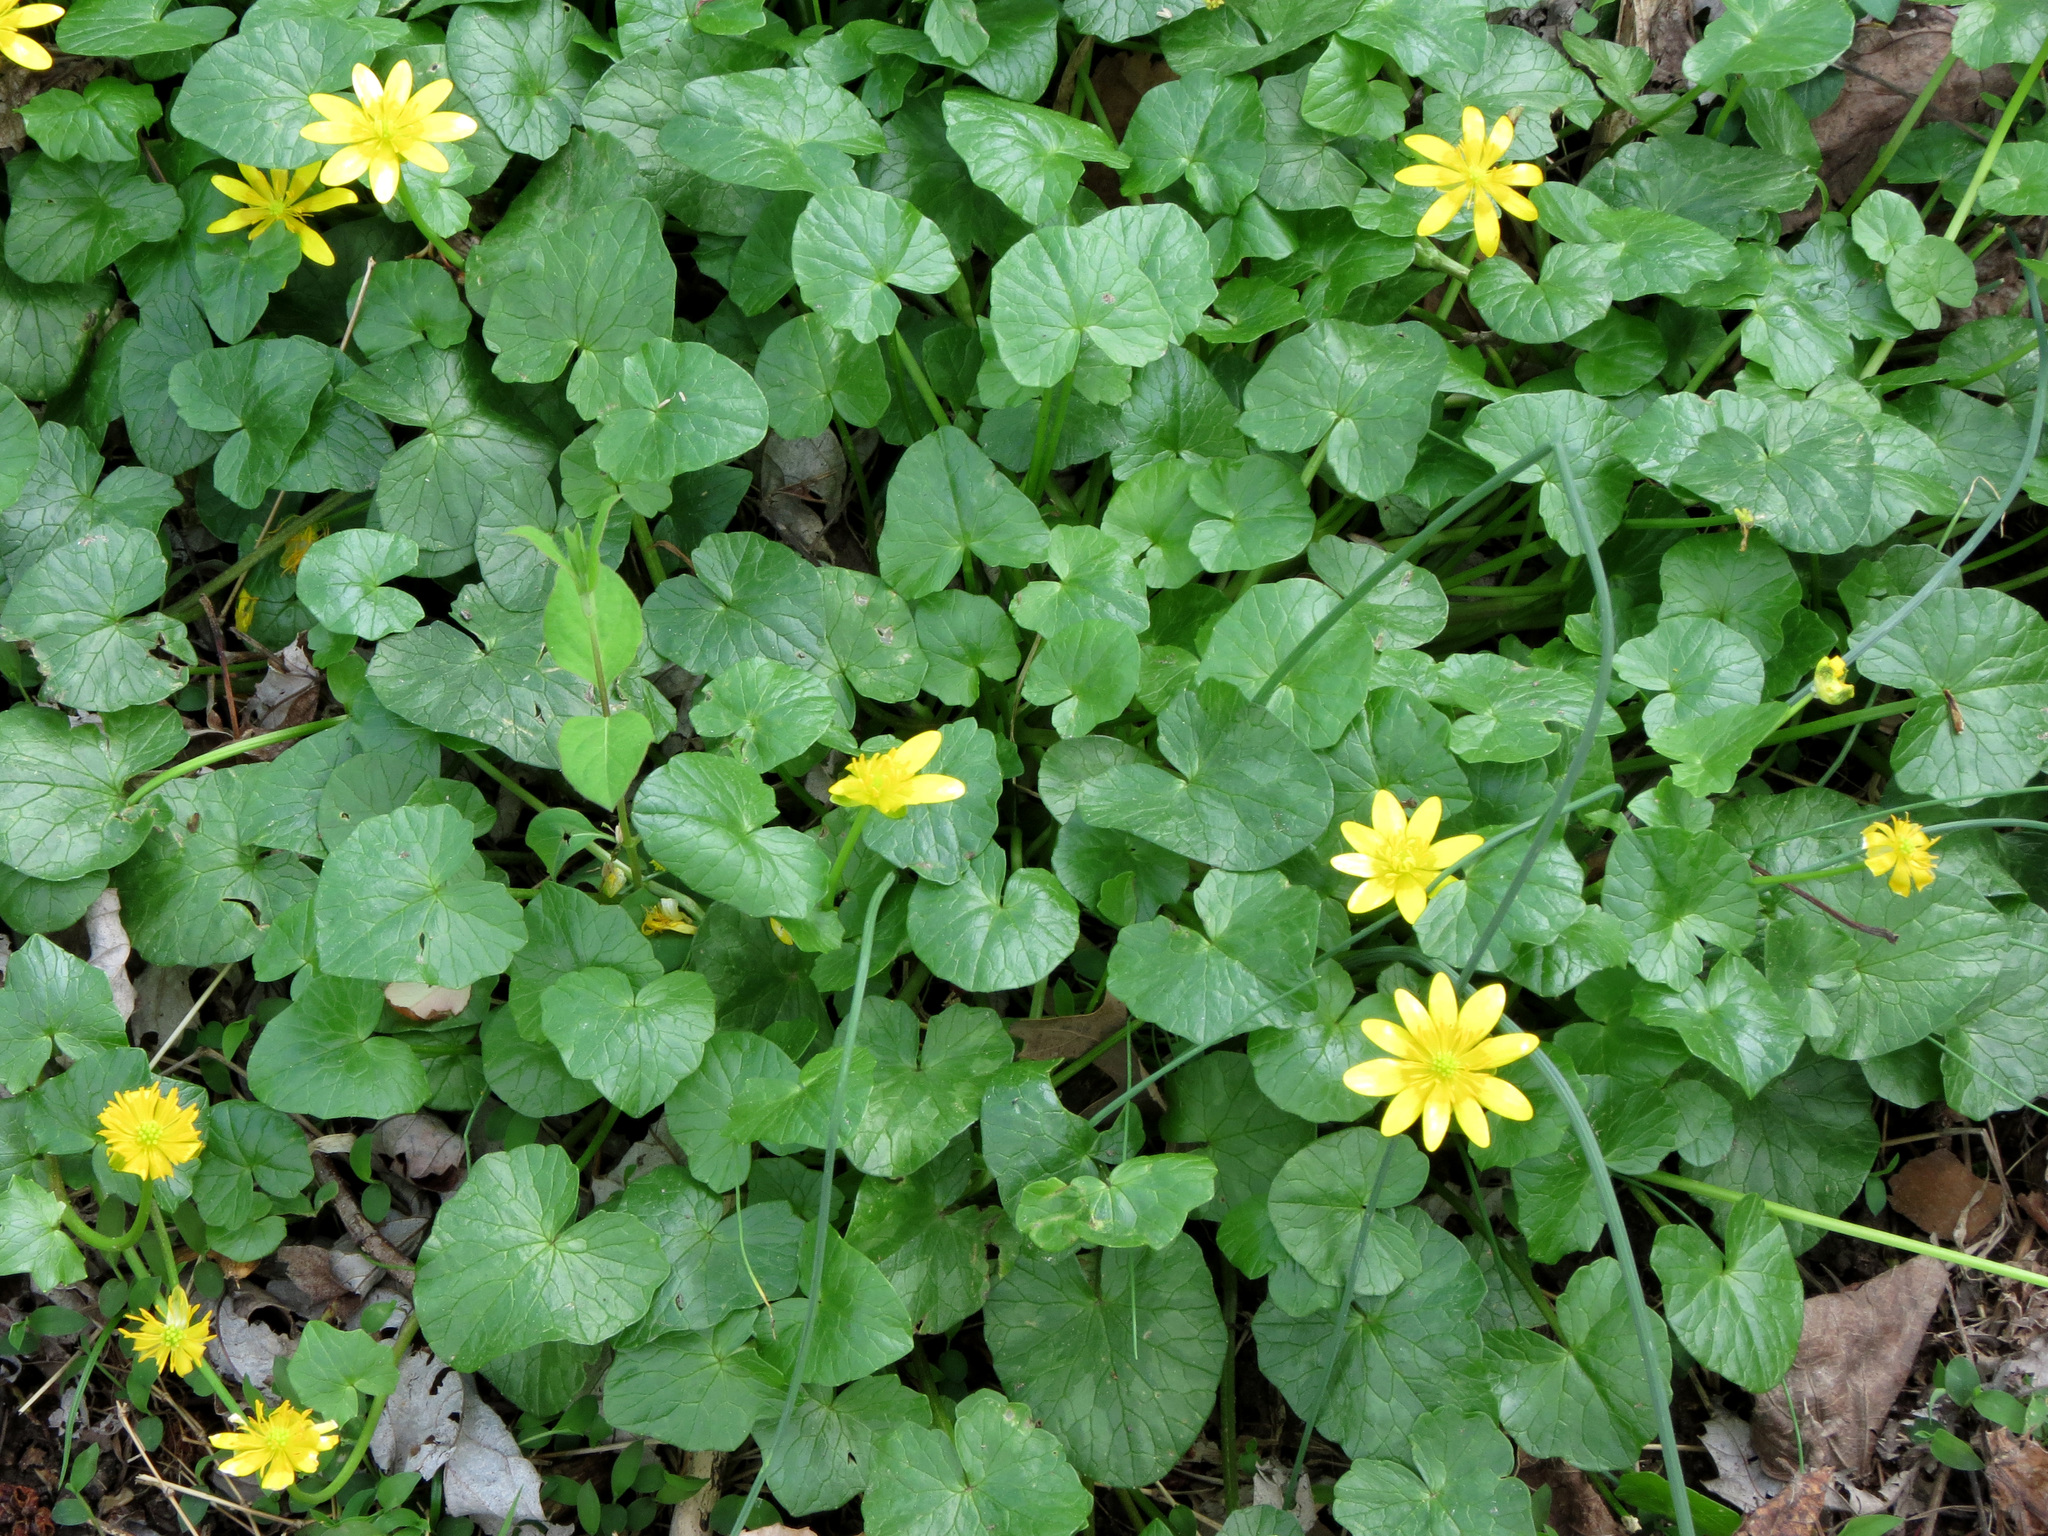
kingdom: Plantae
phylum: Tracheophyta
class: Magnoliopsida
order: Ranunculales
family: Ranunculaceae
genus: Ficaria
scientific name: Ficaria verna
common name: Lesser celandine
